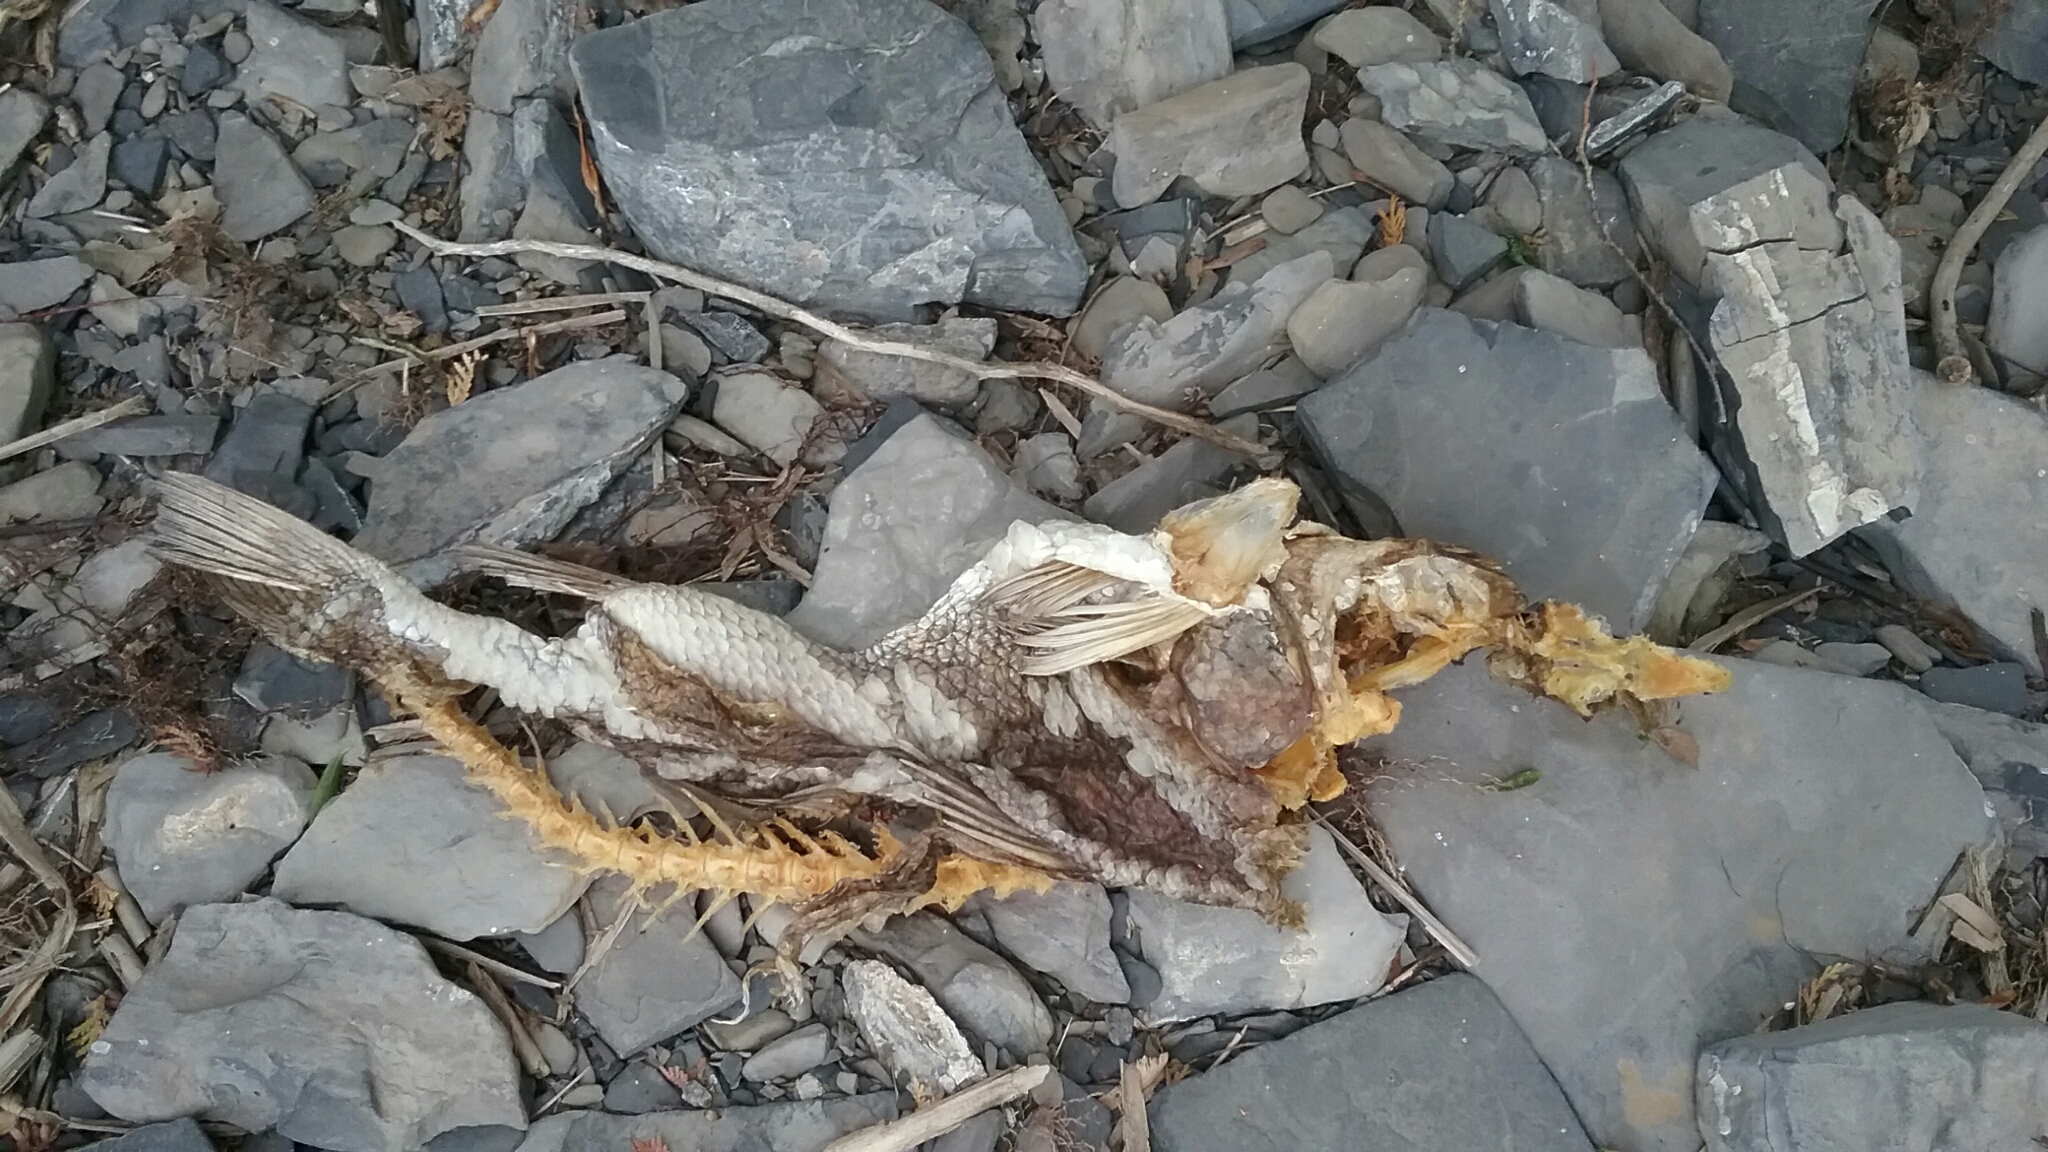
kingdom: Animalia
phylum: Chordata
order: Perciformes
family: Sciaenidae
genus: Aplodinotus
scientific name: Aplodinotus grunniens
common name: Freshwater drum
